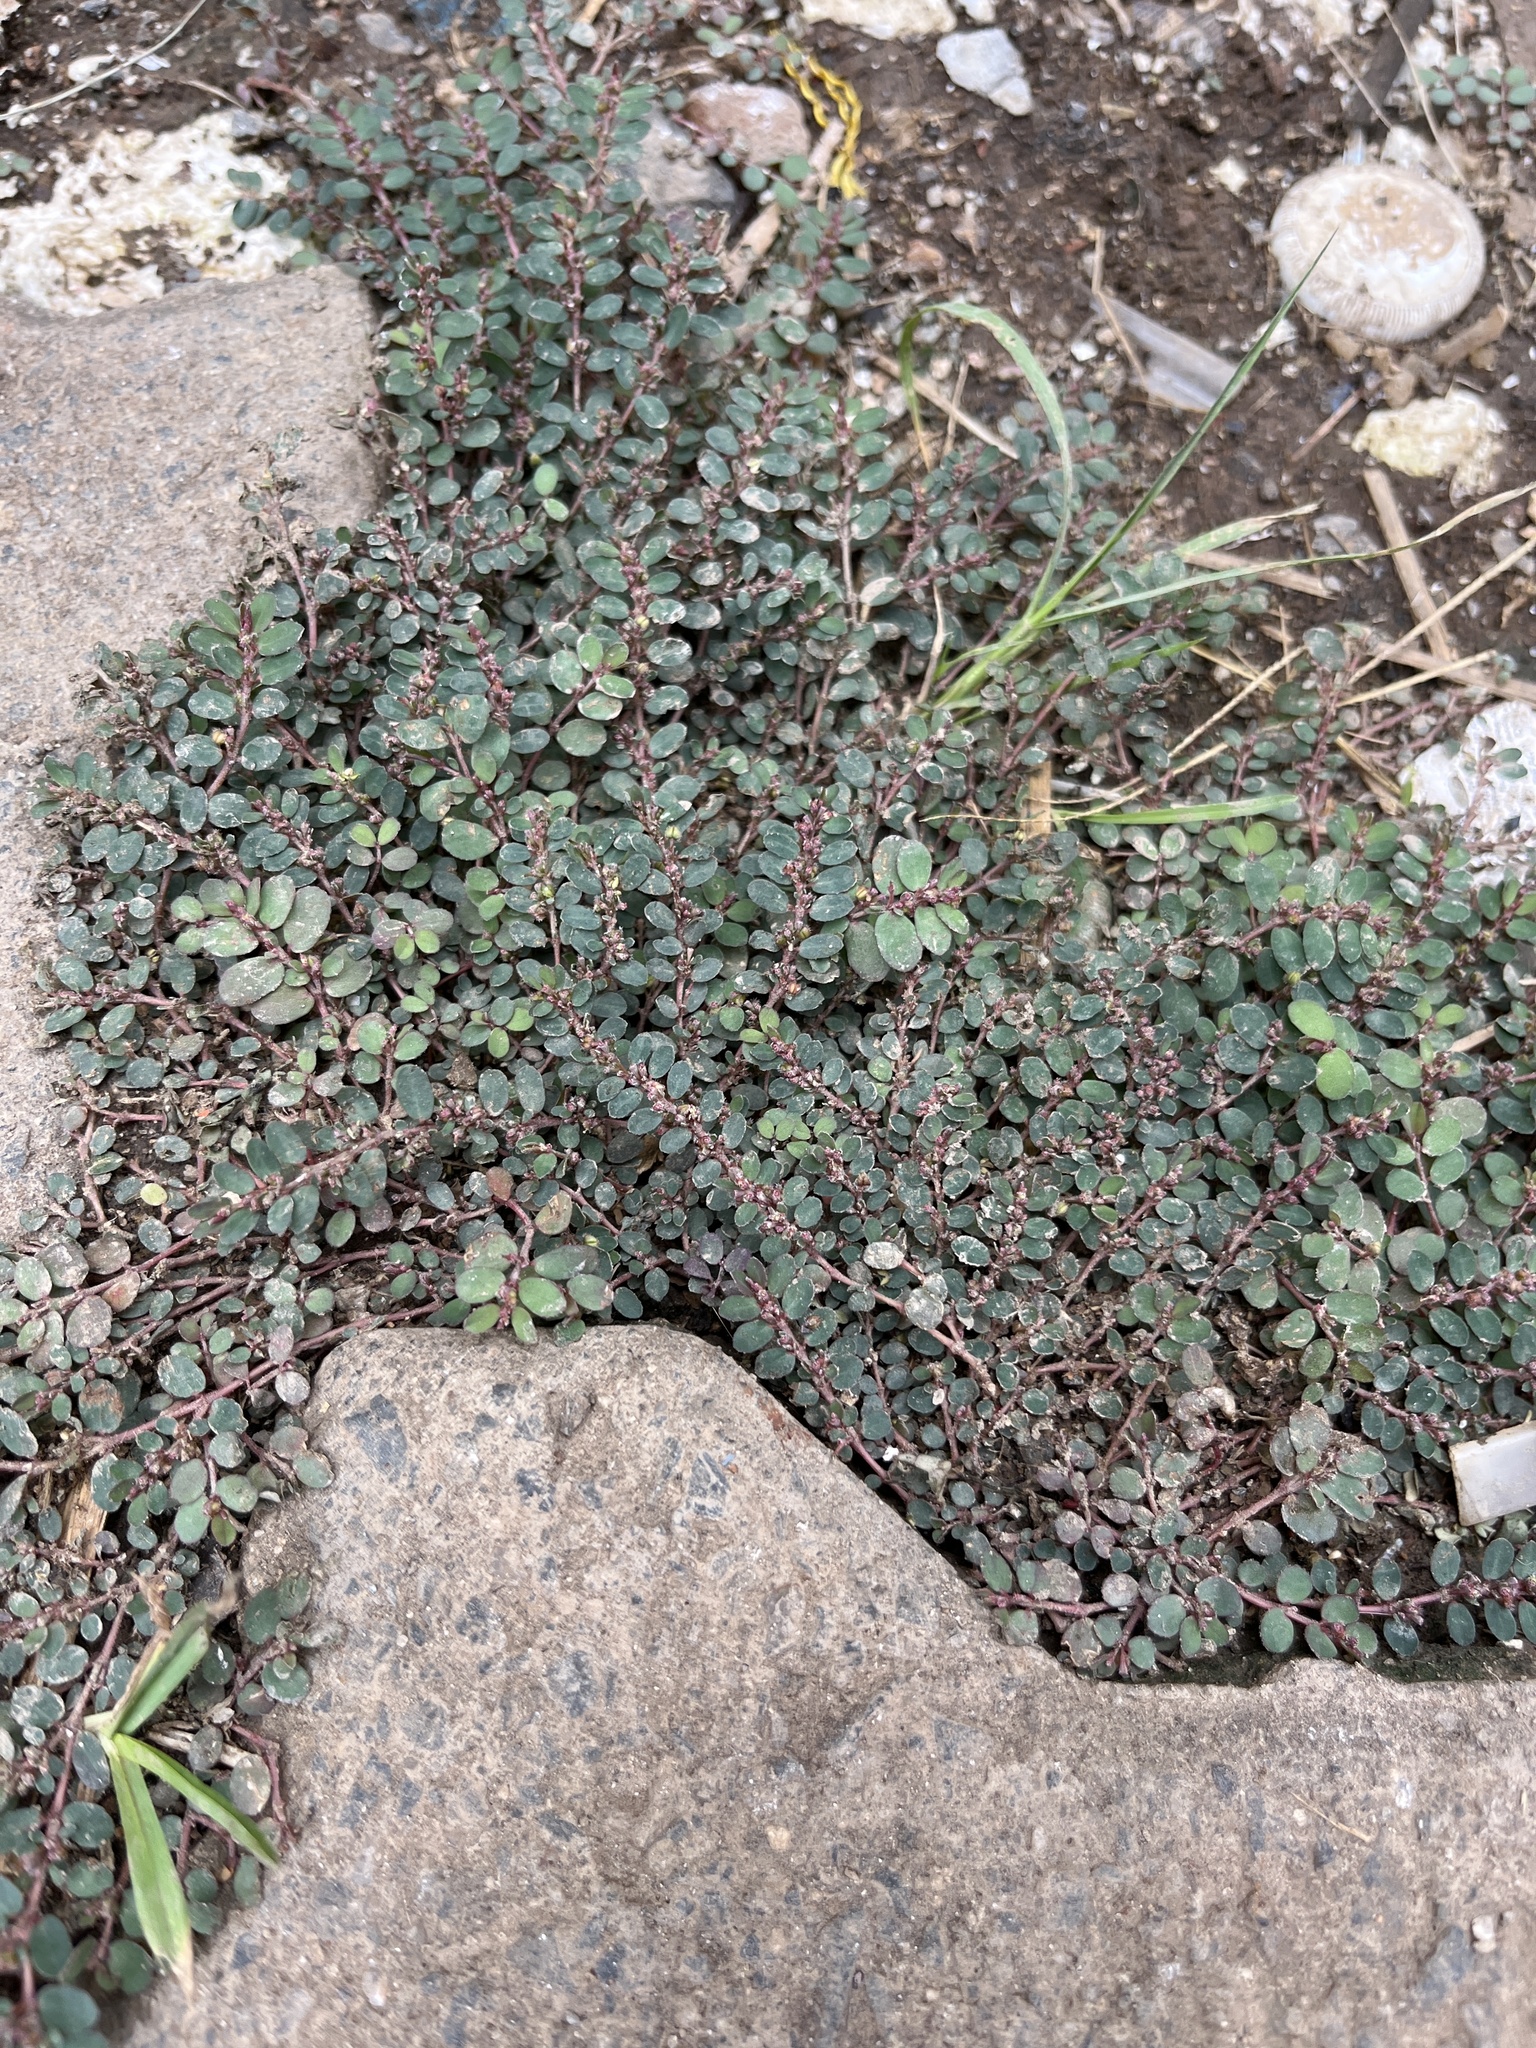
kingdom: Plantae
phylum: Tracheophyta
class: Magnoliopsida
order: Malpighiales
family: Euphorbiaceae
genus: Euphorbia
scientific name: Euphorbia prostrata
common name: Prostrate sandmat
